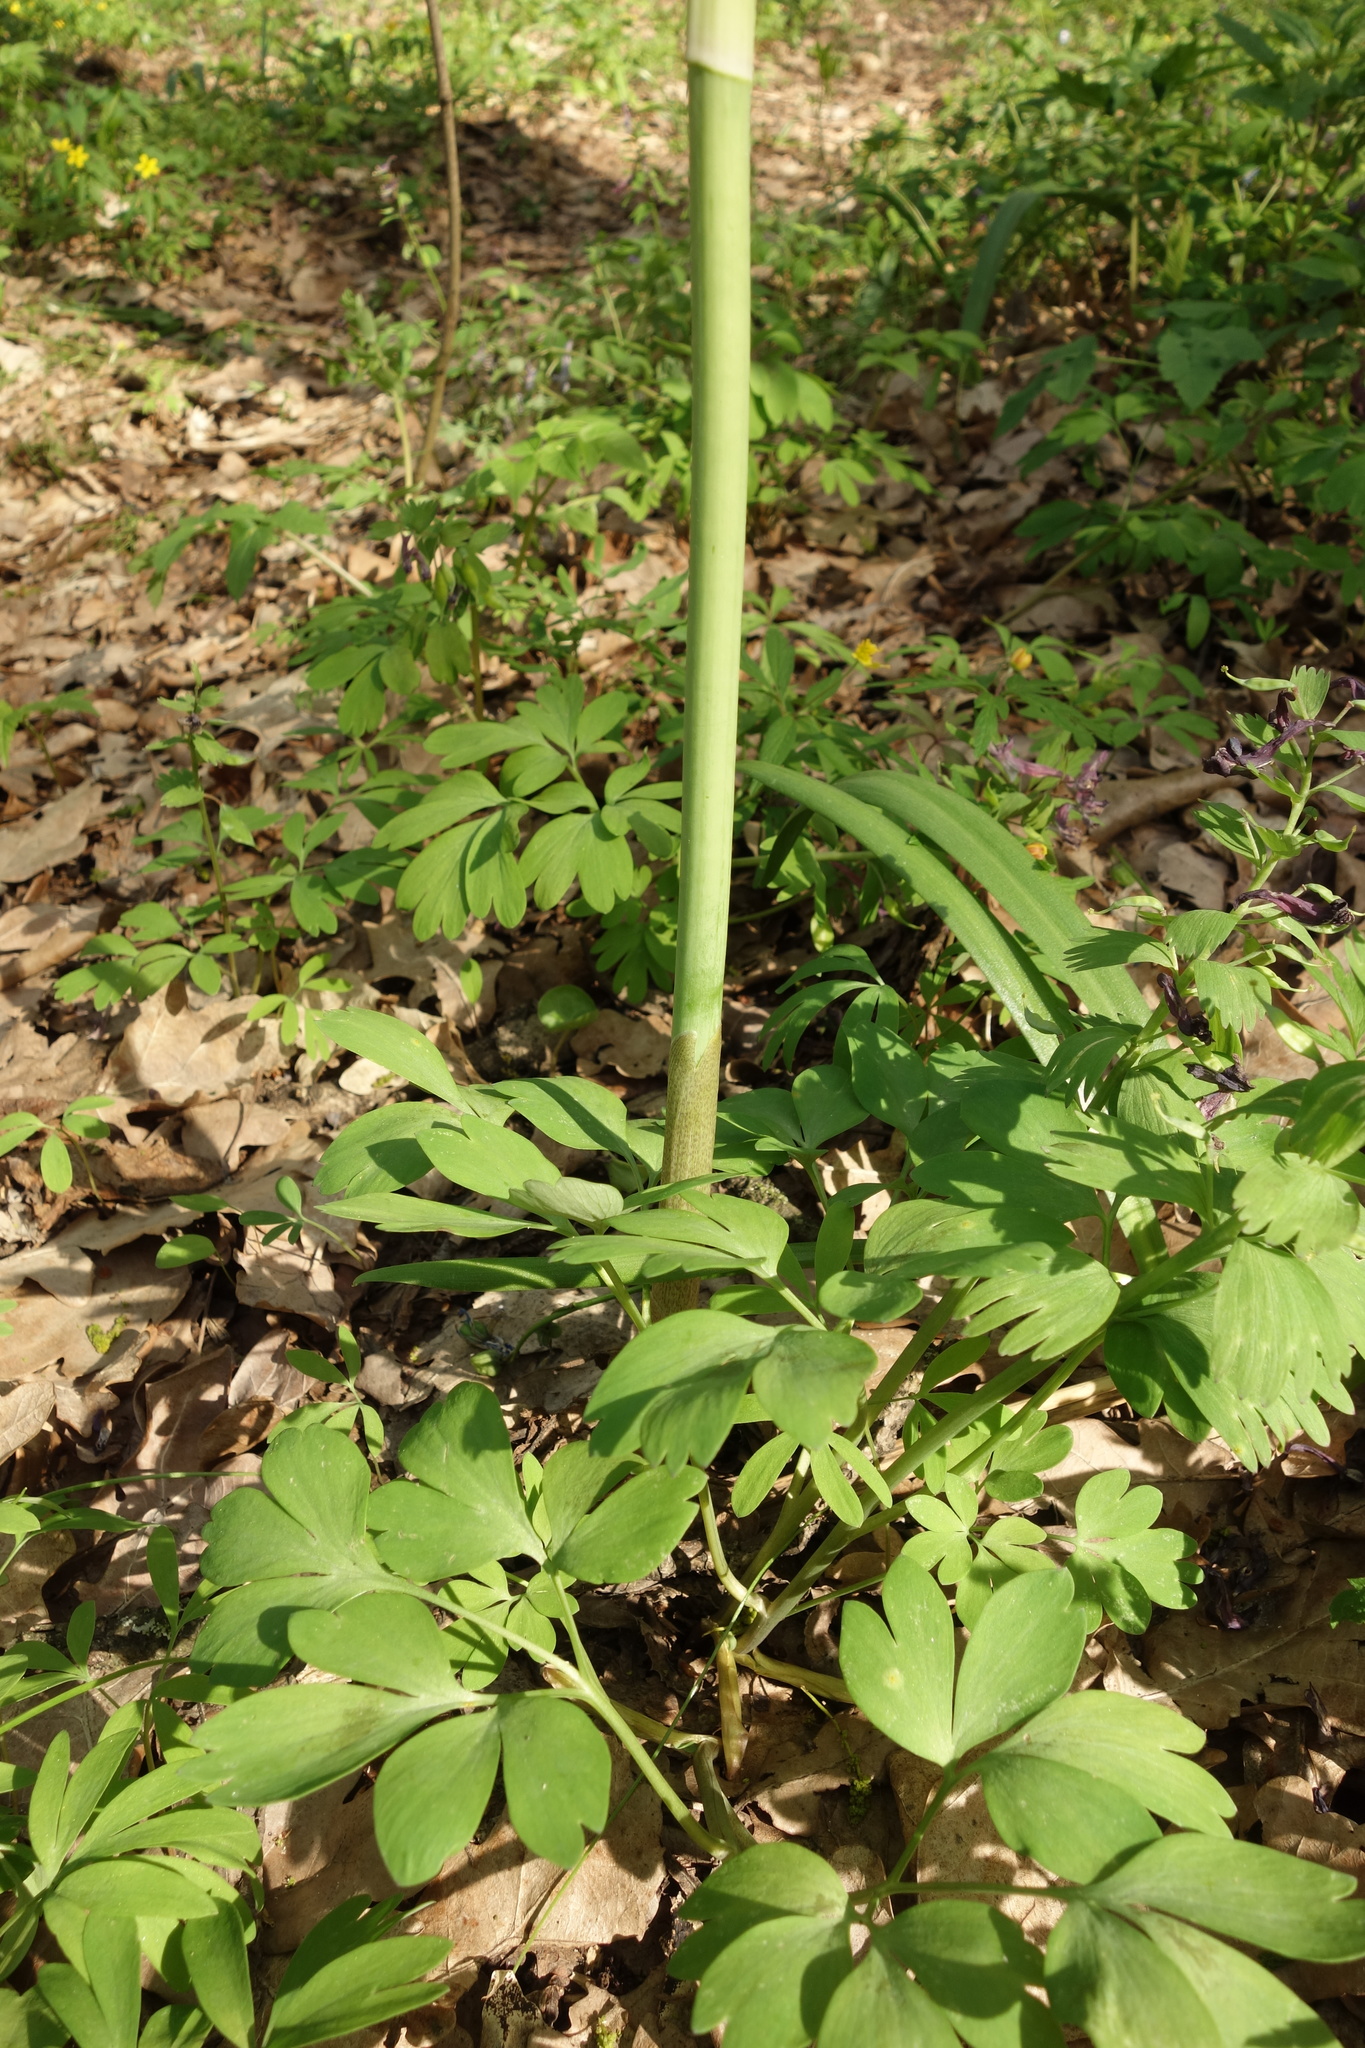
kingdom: Plantae
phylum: Tracheophyta
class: Liliopsida
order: Asparagales
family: Asparagaceae
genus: Polygonatum
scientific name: Polygonatum multiflorum
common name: Solomon's-seal
